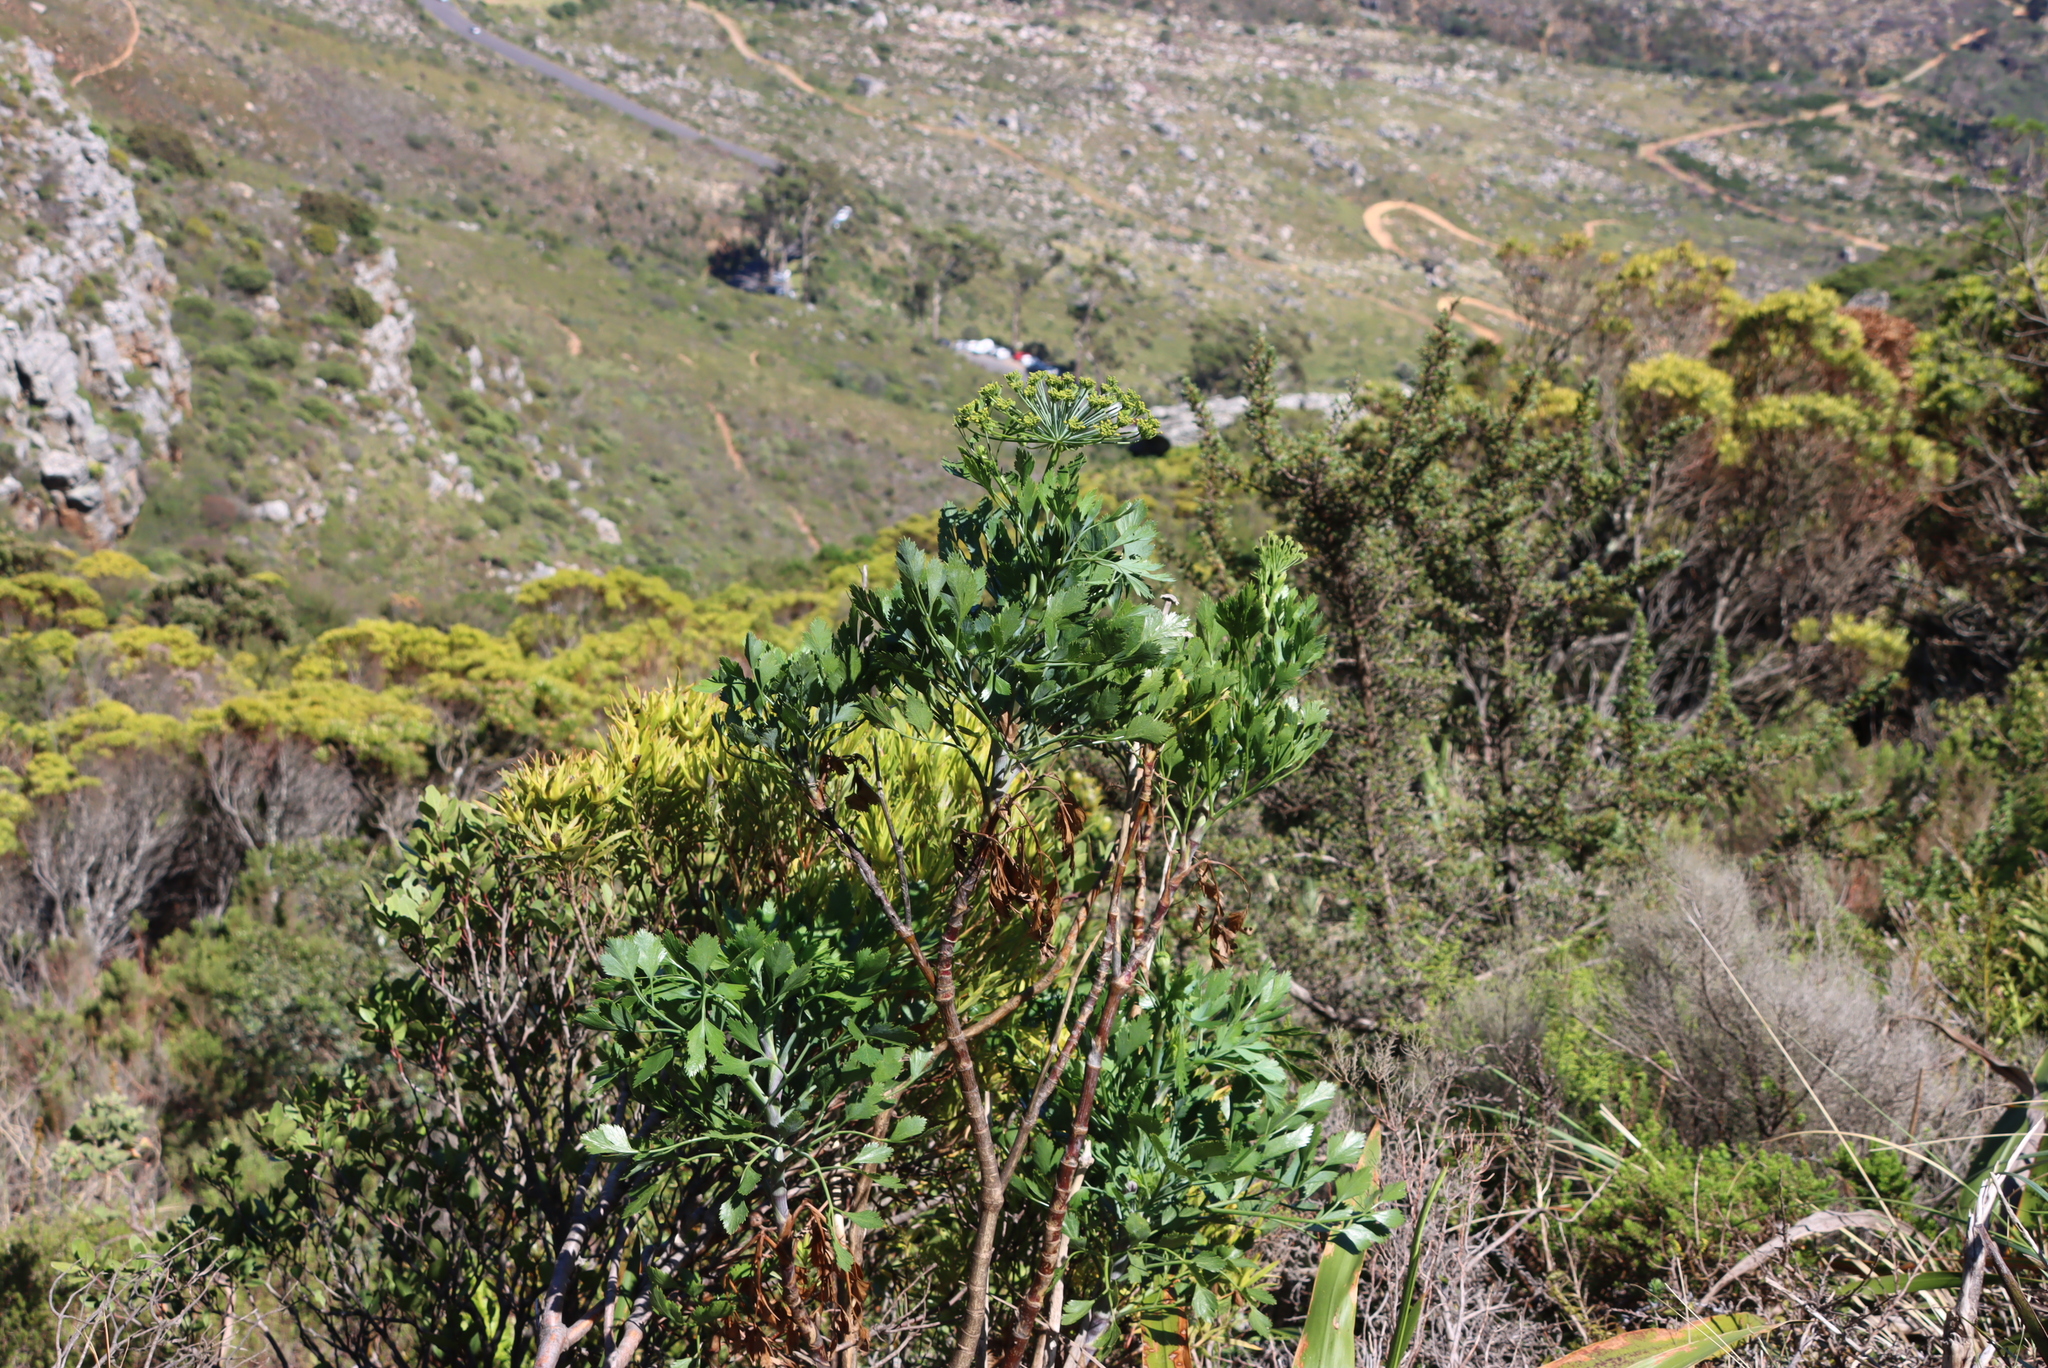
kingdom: Plantae
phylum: Tracheophyta
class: Magnoliopsida
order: Apiales
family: Apiaceae
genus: Notobubon
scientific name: Notobubon galbanum
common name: Blisterbush
